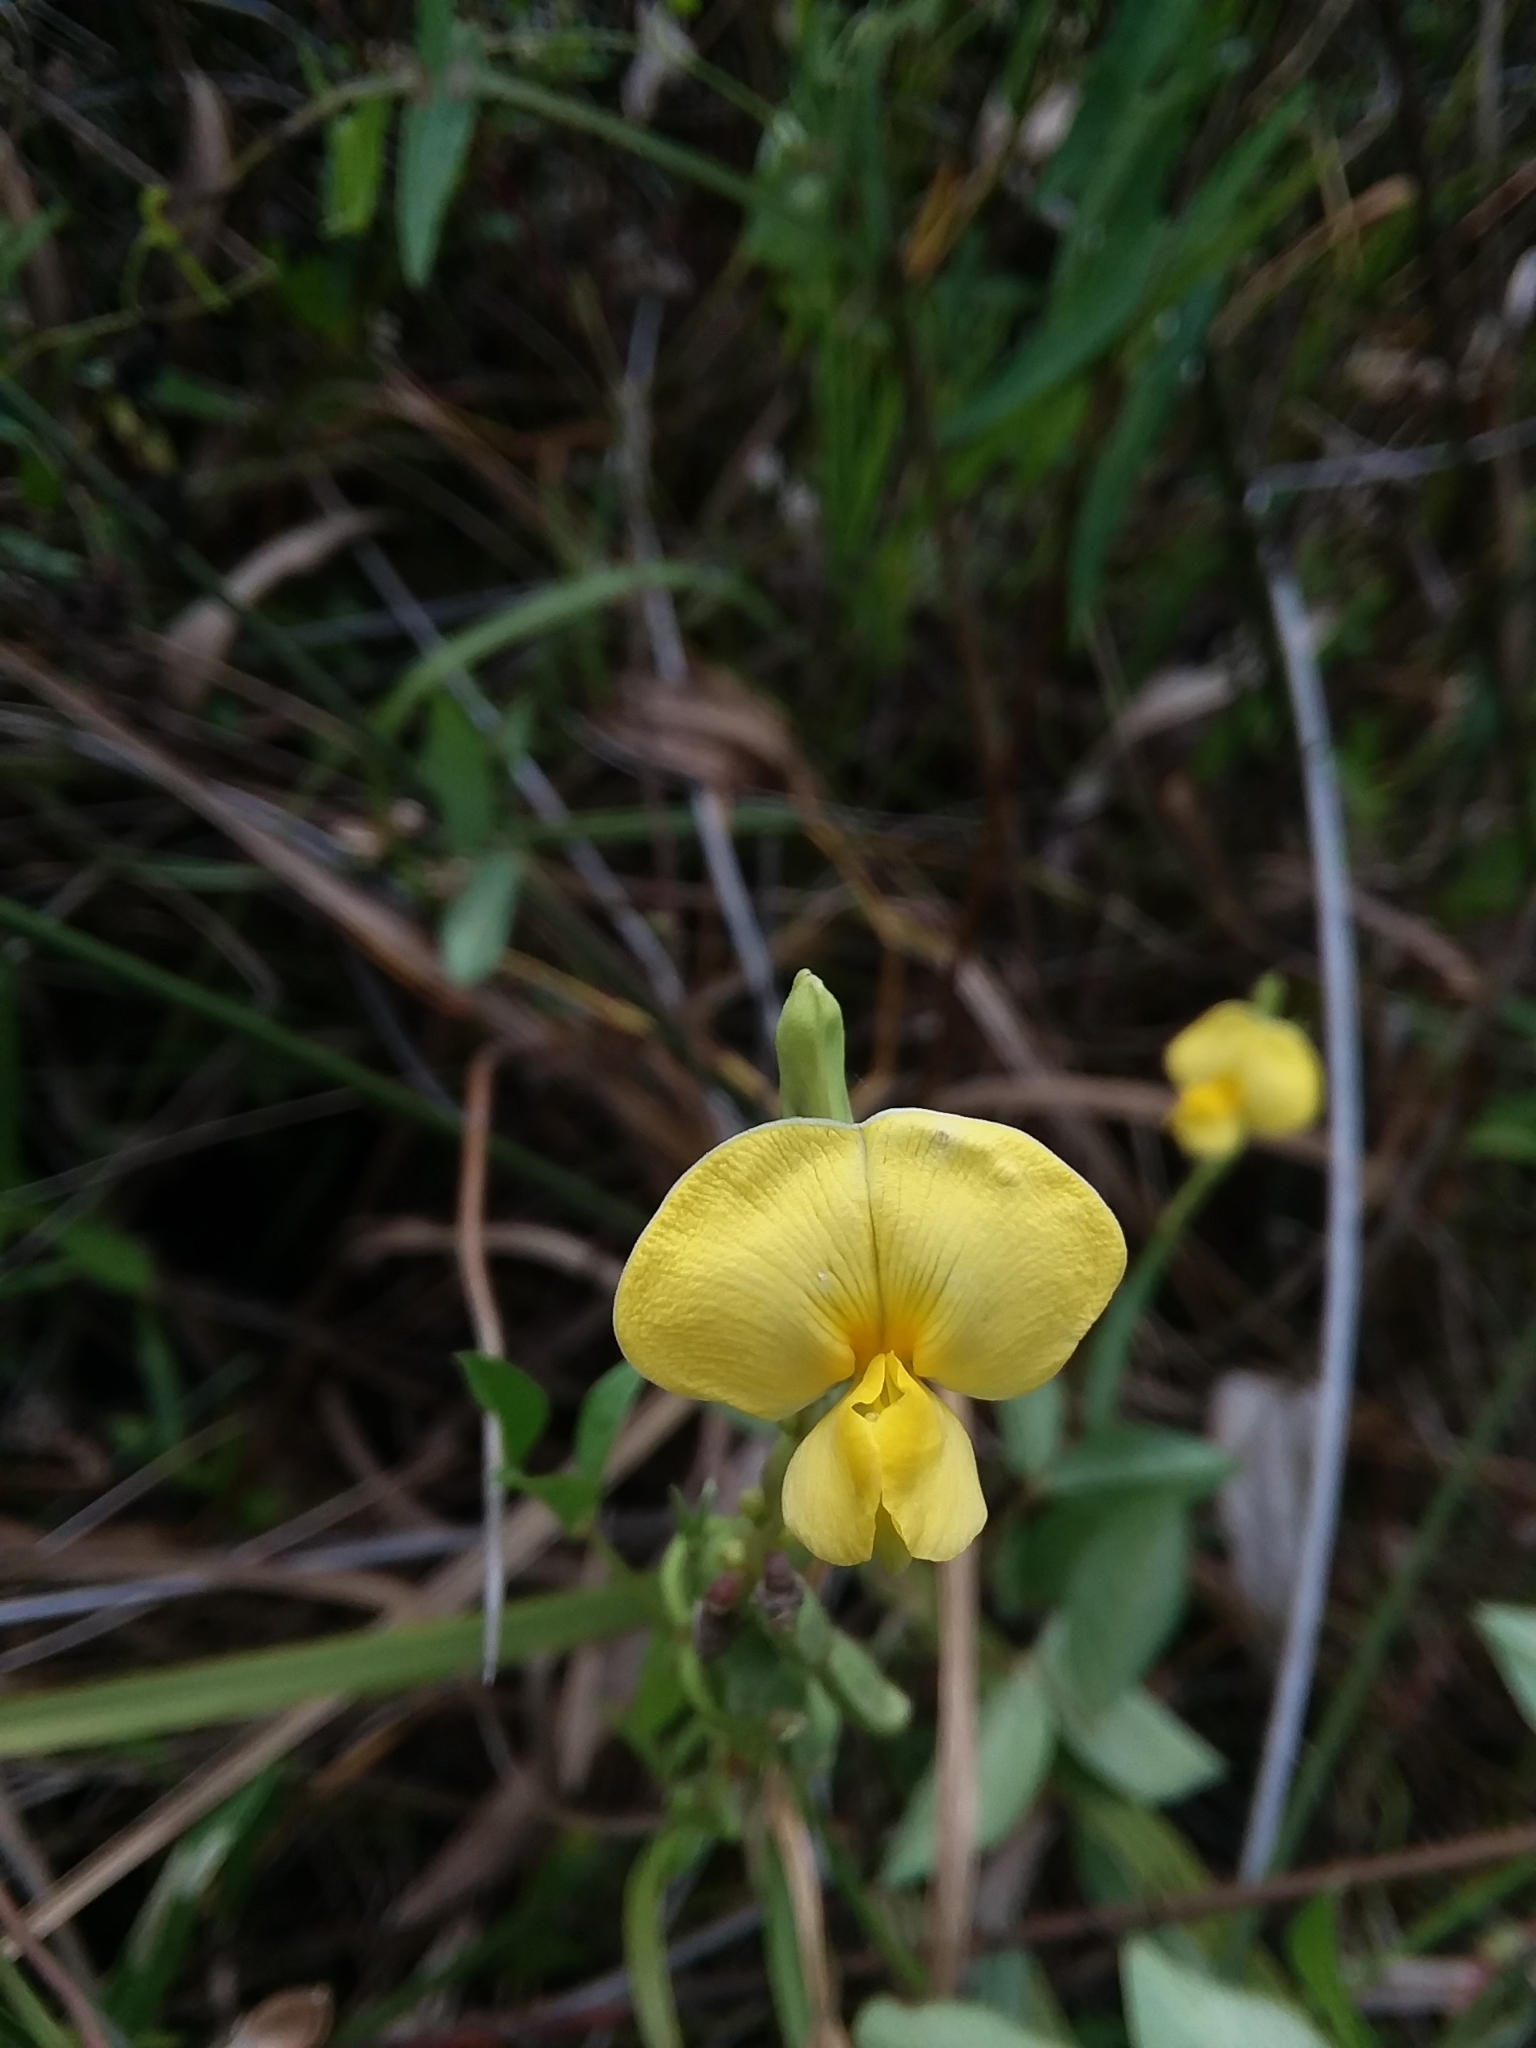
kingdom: Plantae
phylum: Tracheophyta
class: Magnoliopsida
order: Fabales
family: Fabaceae
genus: Vigna
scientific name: Vigna luteola
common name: Hairypod cowpea
